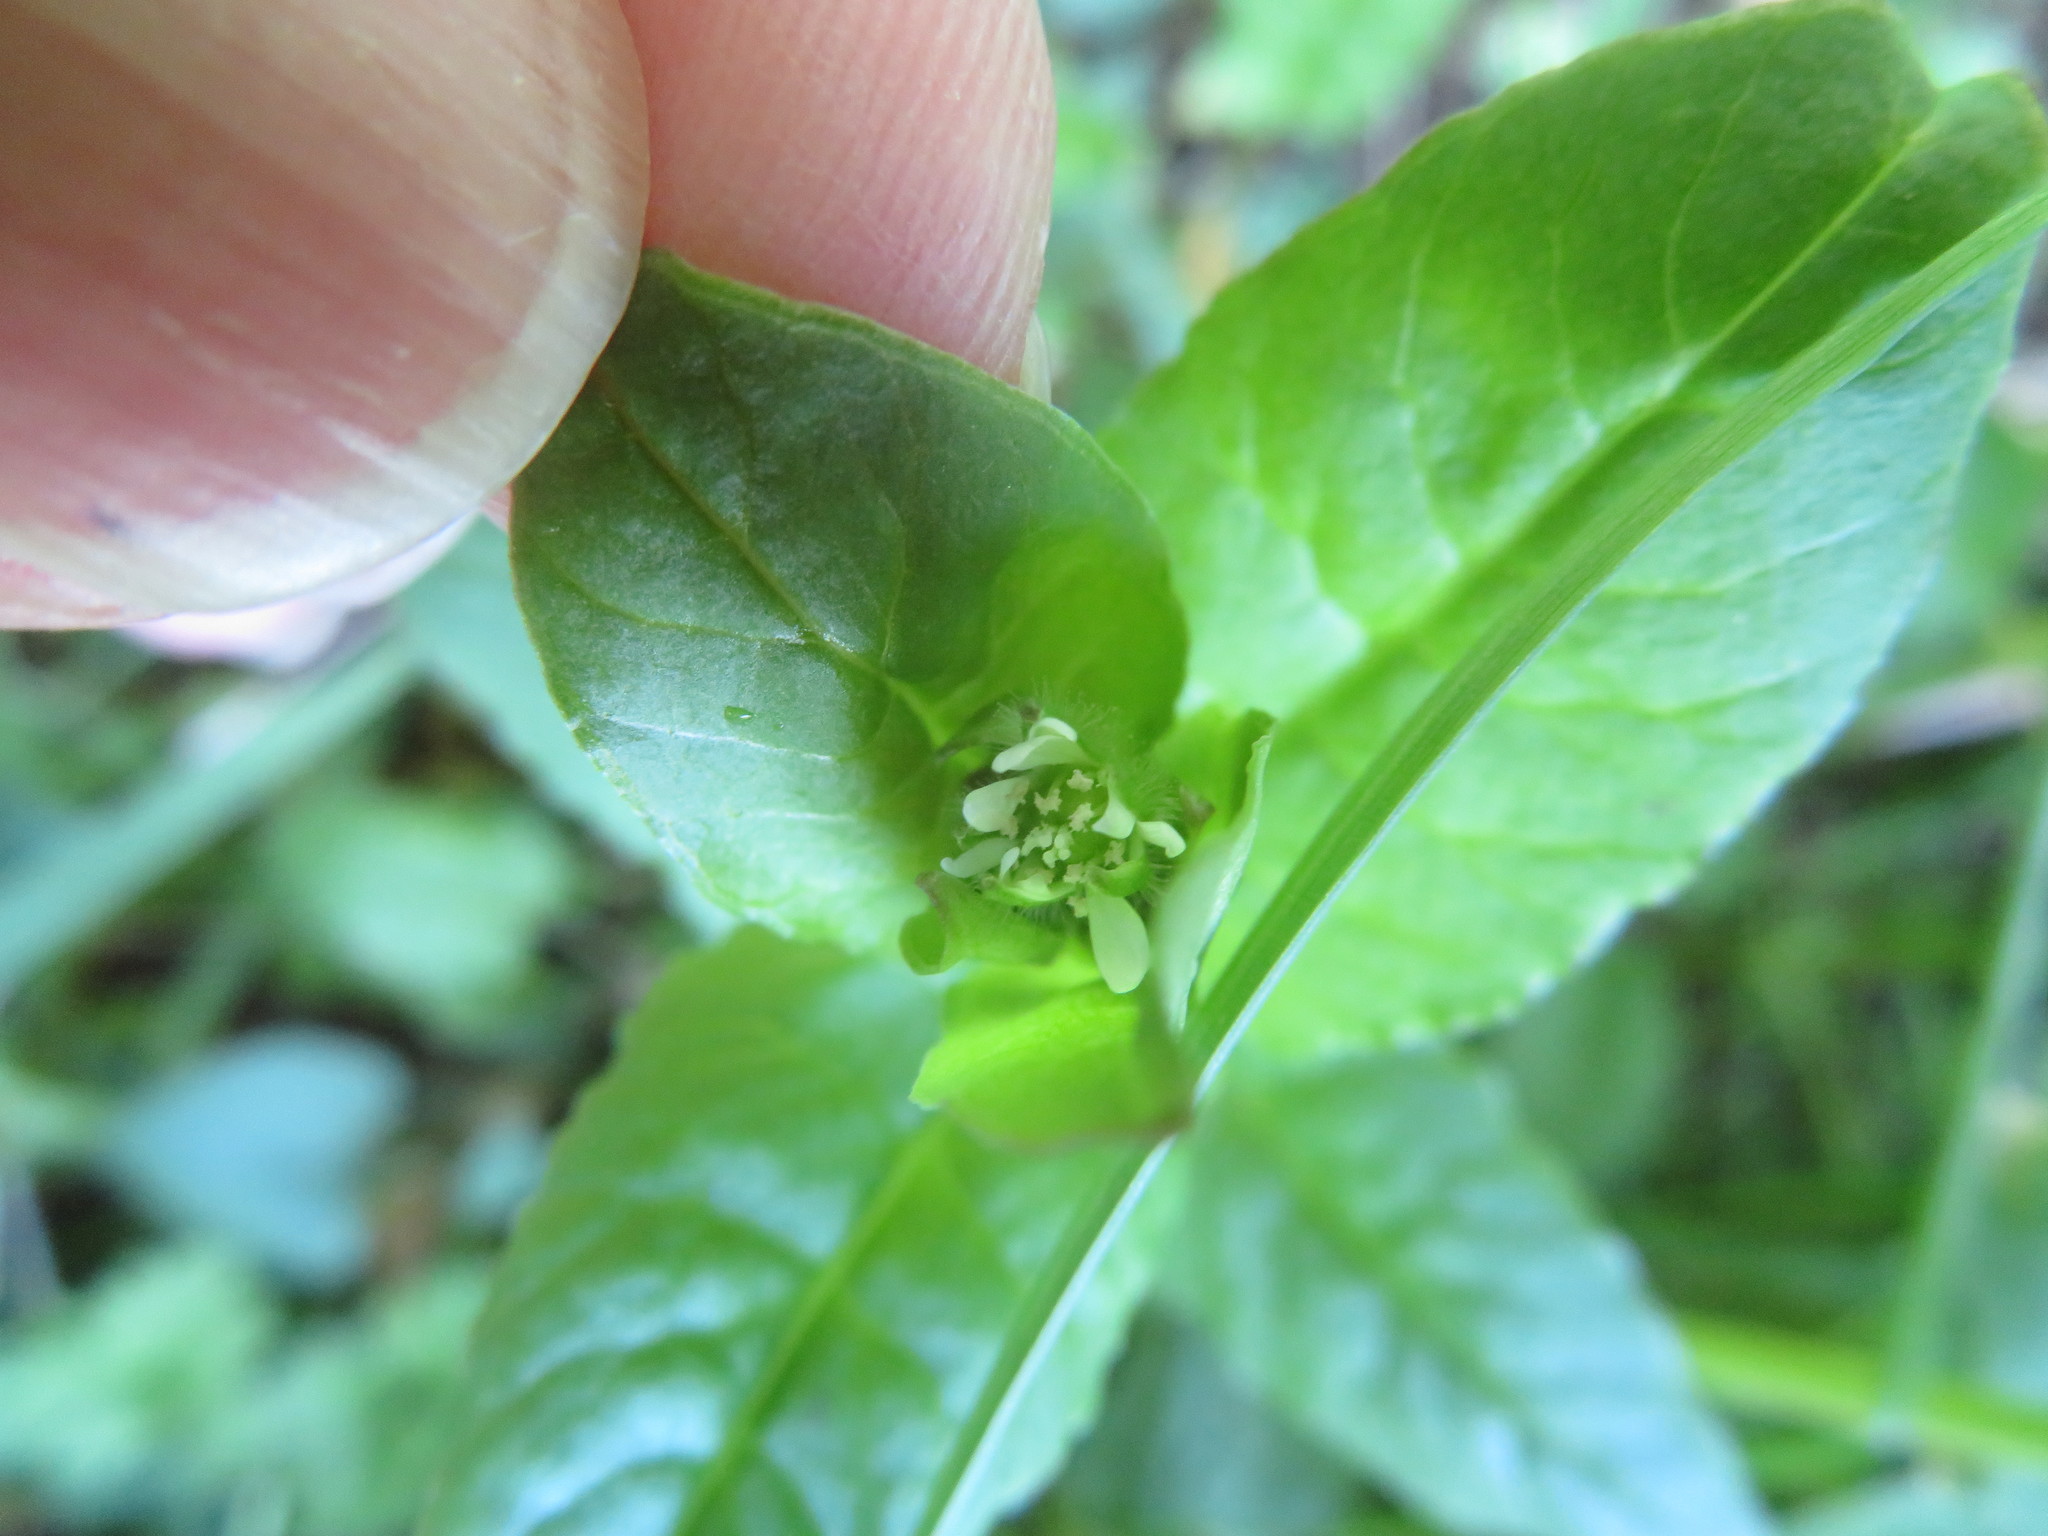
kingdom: Plantae
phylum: Tracheophyta
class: Magnoliopsida
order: Caryophyllales
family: Caryophyllaceae
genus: Stellaria
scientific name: Stellaria aquatica
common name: Water chickweed
